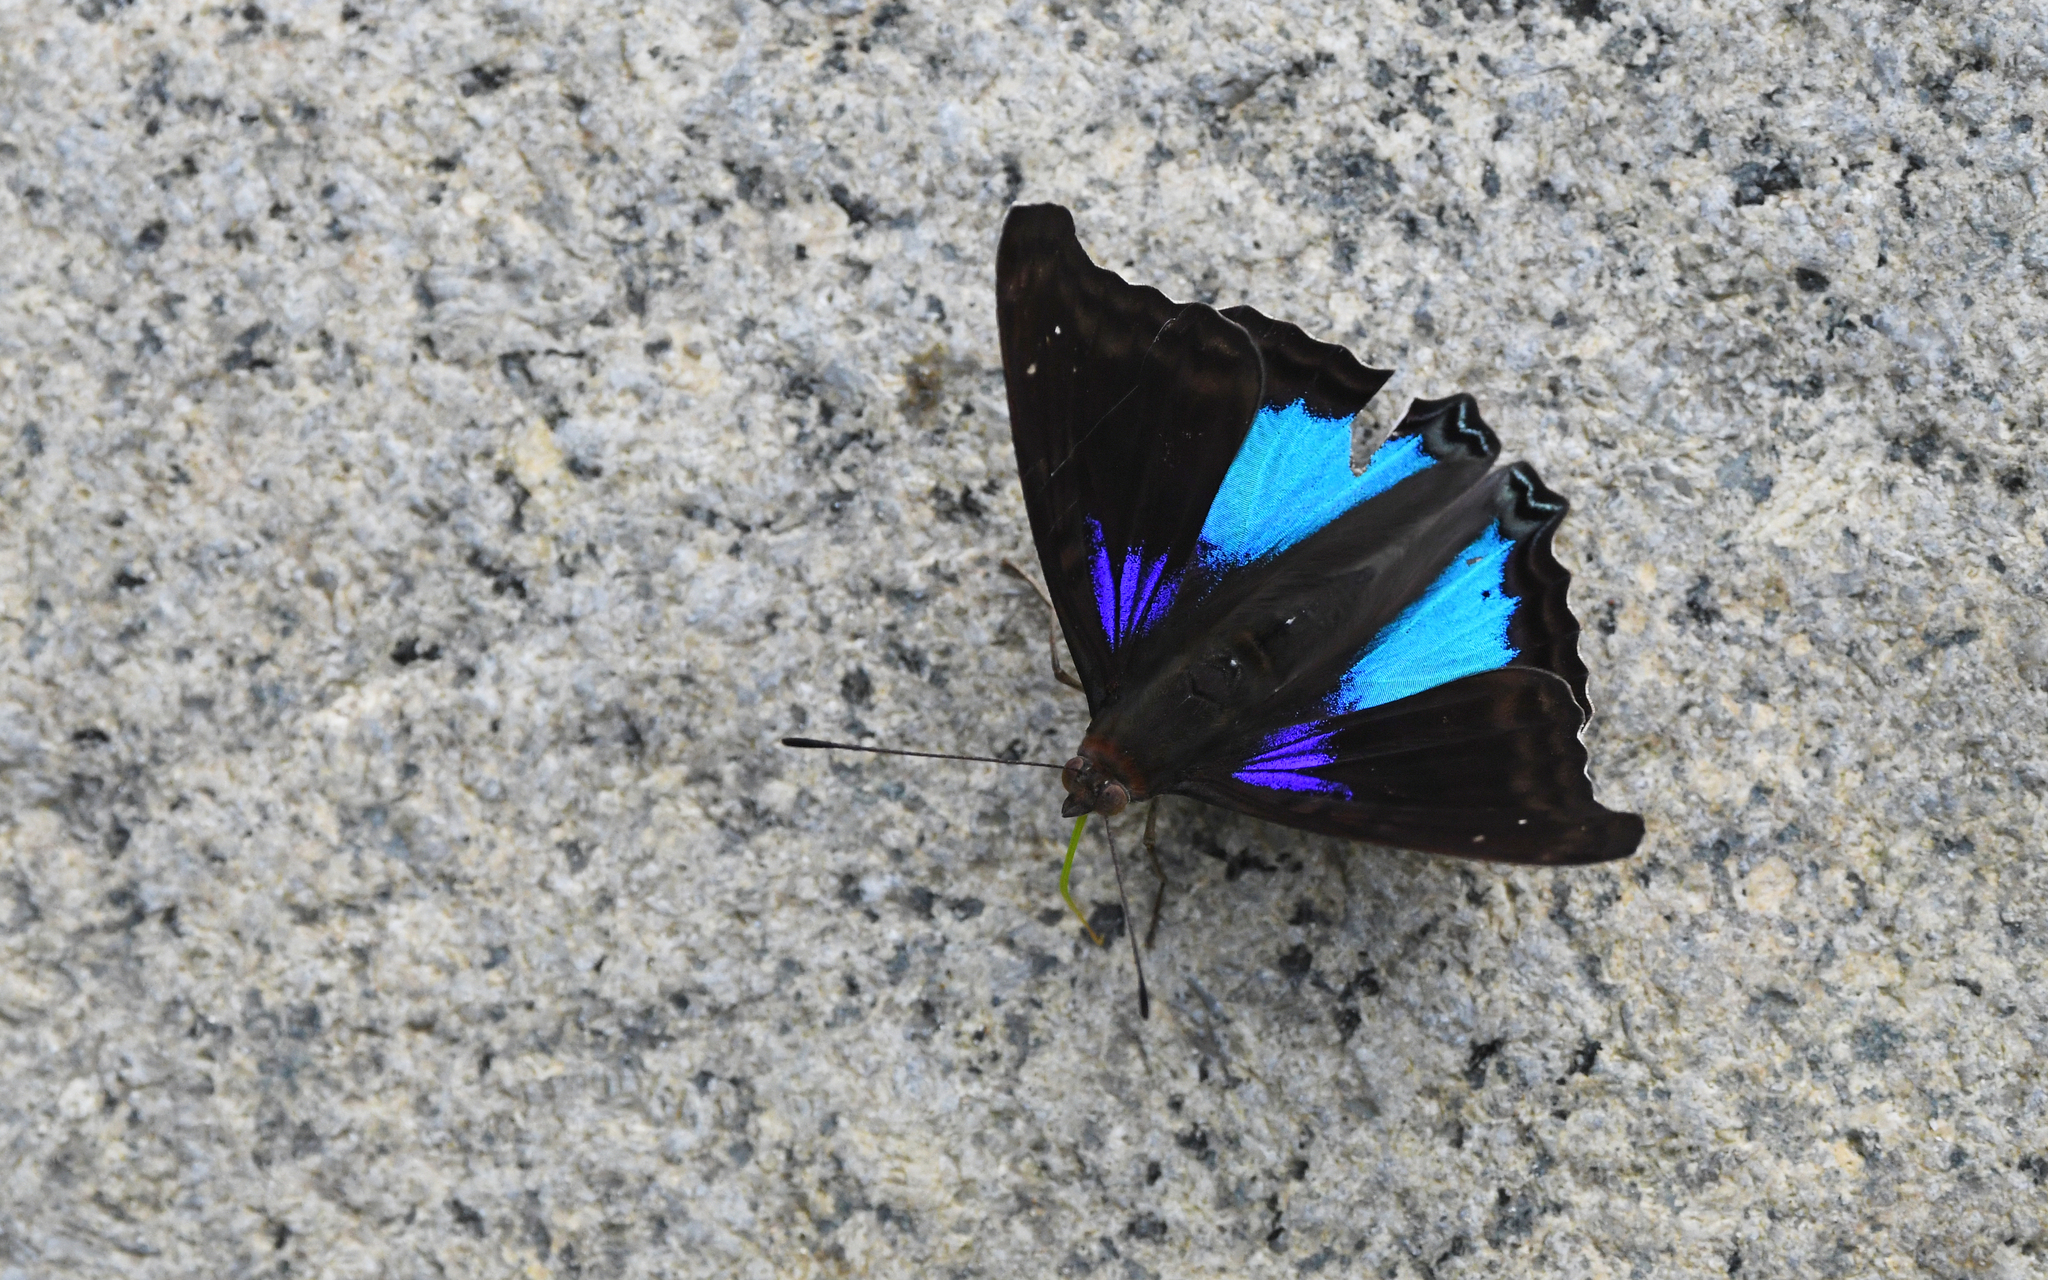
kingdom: Animalia
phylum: Arthropoda
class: Insecta
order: Lepidoptera
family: Nymphalidae
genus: Doxocopa
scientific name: Doxocopa cyane
